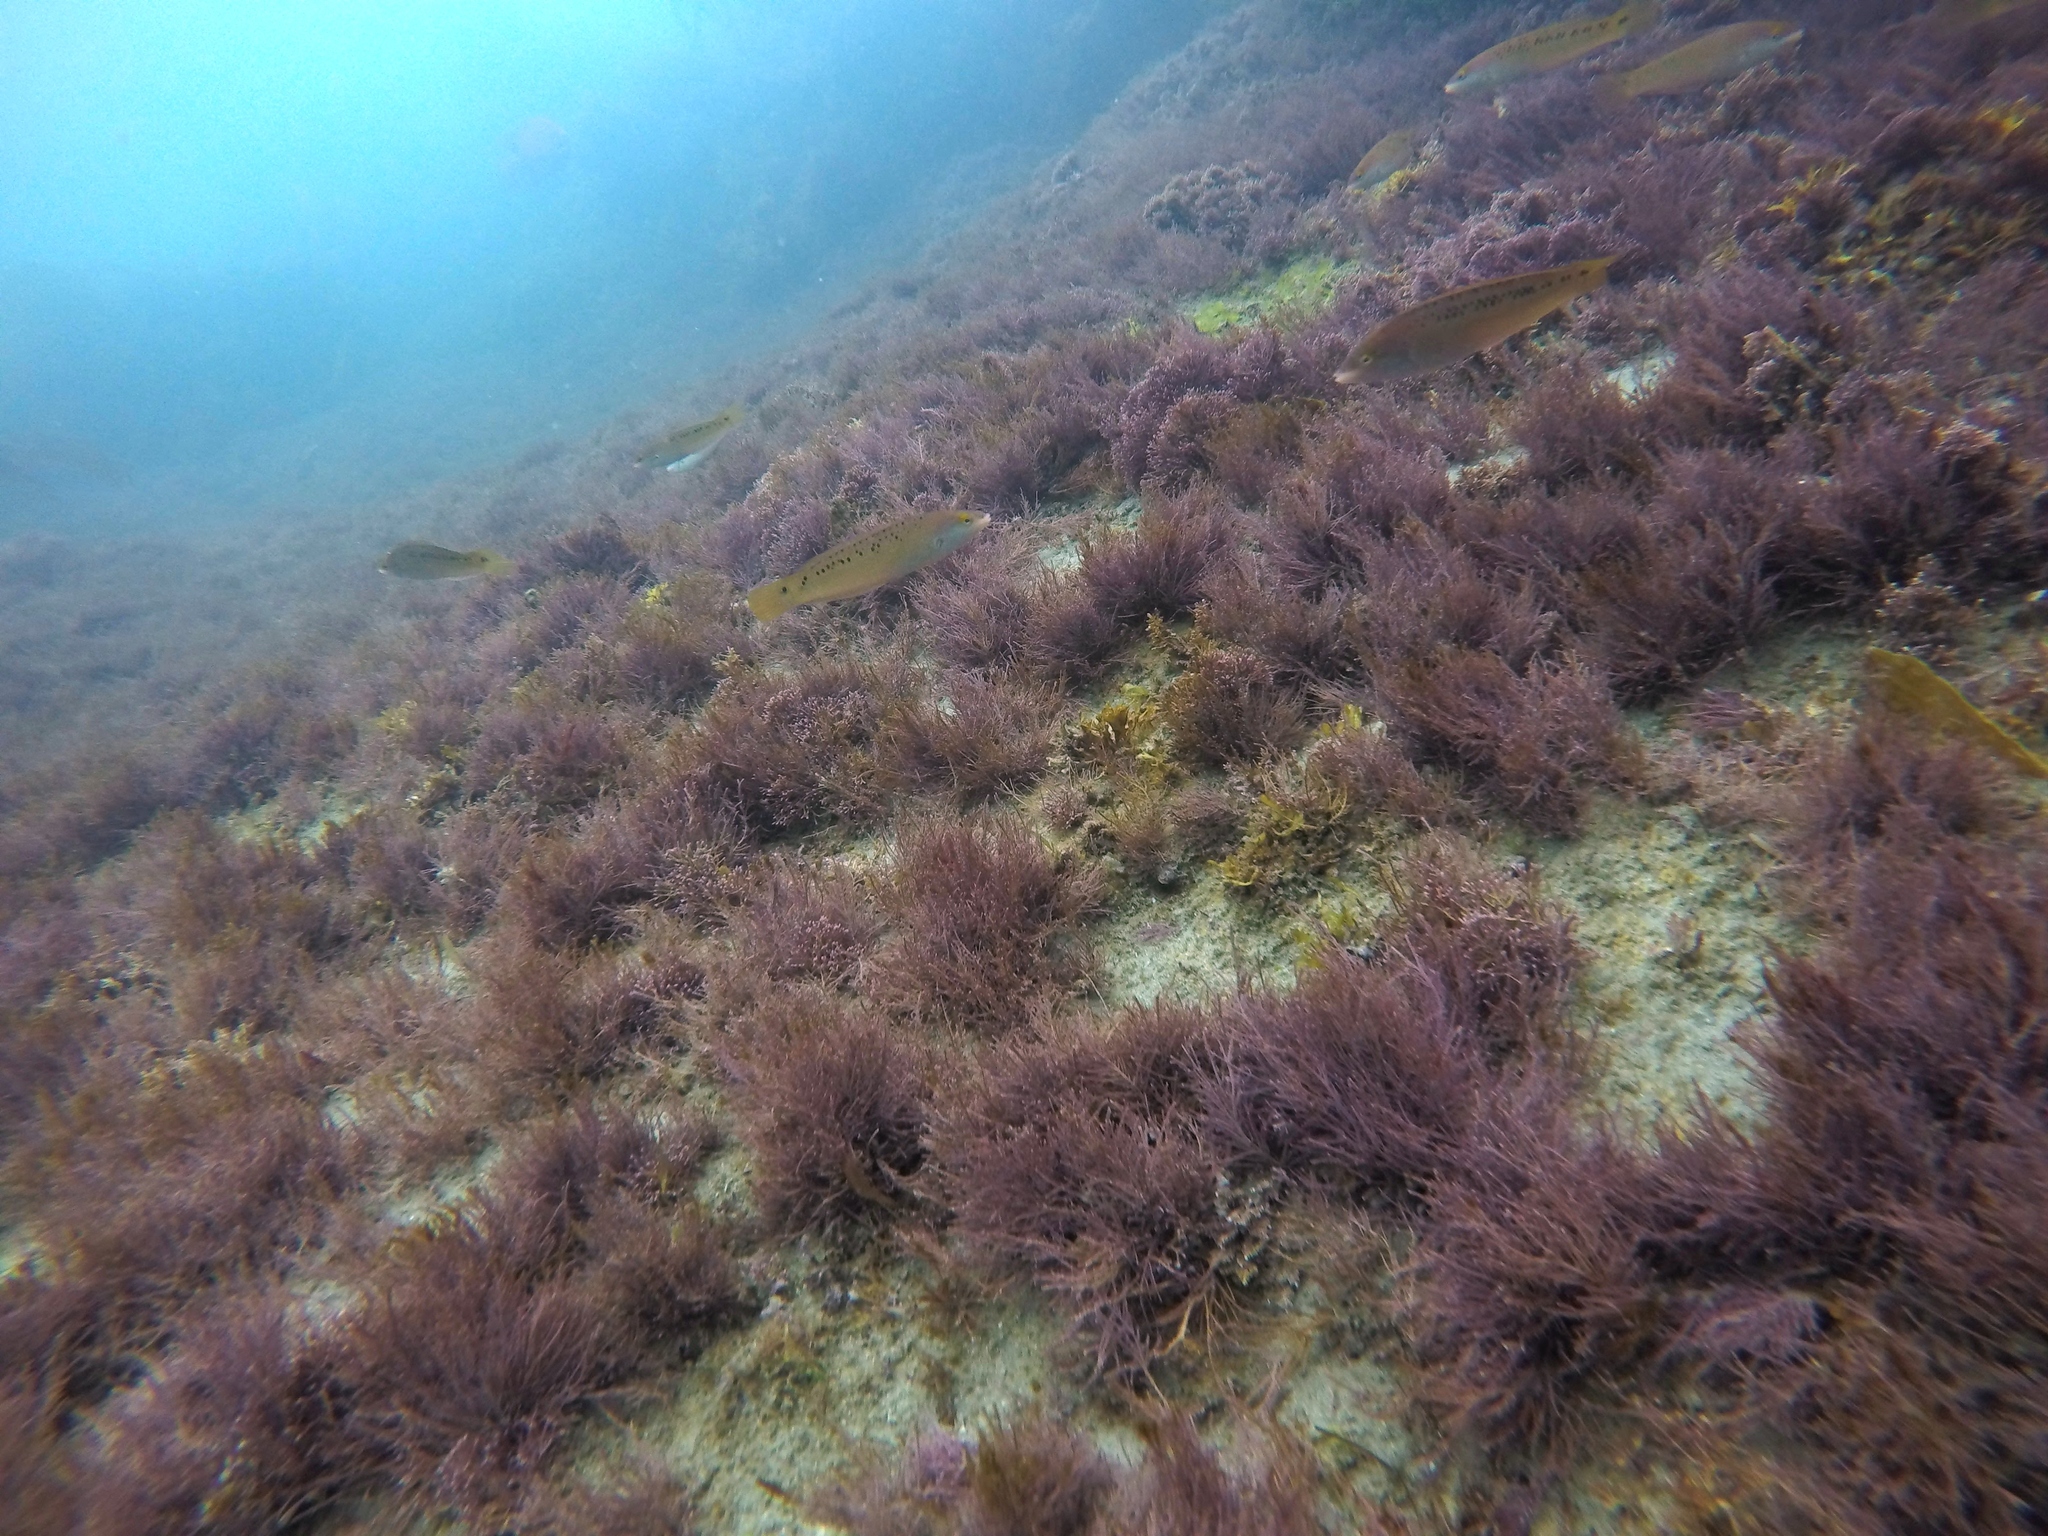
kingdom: Animalia
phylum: Chordata
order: Perciformes
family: Labridae
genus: Halichoeres
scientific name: Halichoeres semicinctus
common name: Rock wrasse
